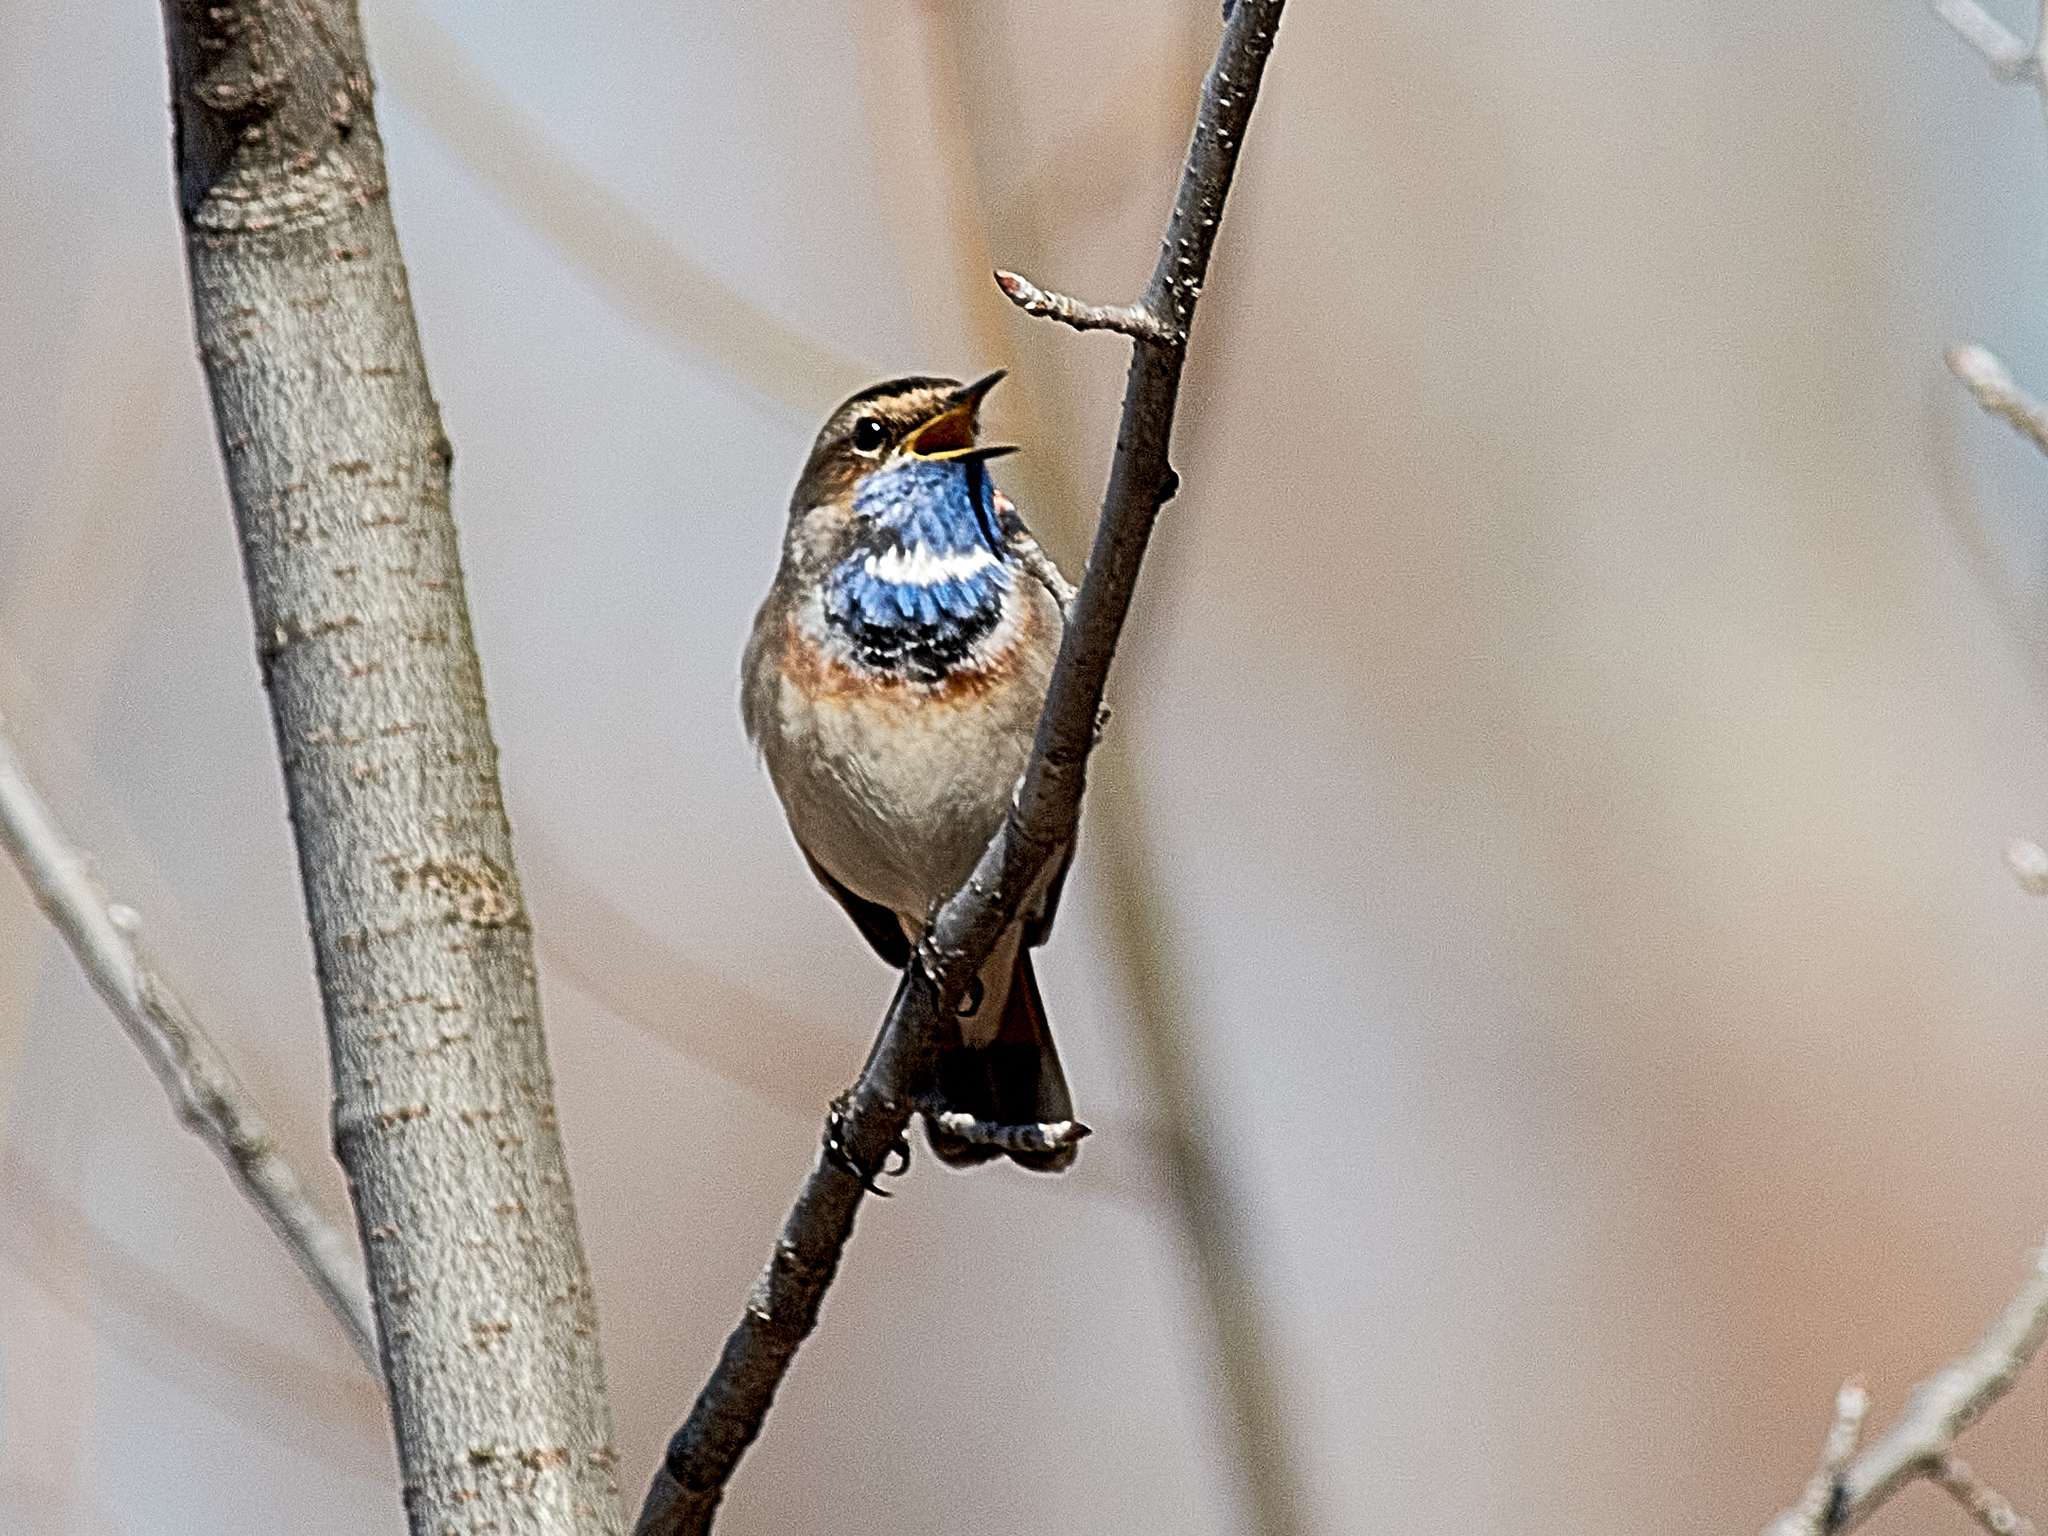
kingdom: Animalia
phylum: Chordata
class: Aves
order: Passeriformes
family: Muscicapidae
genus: Luscinia
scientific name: Luscinia svecica
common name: Bluethroat
